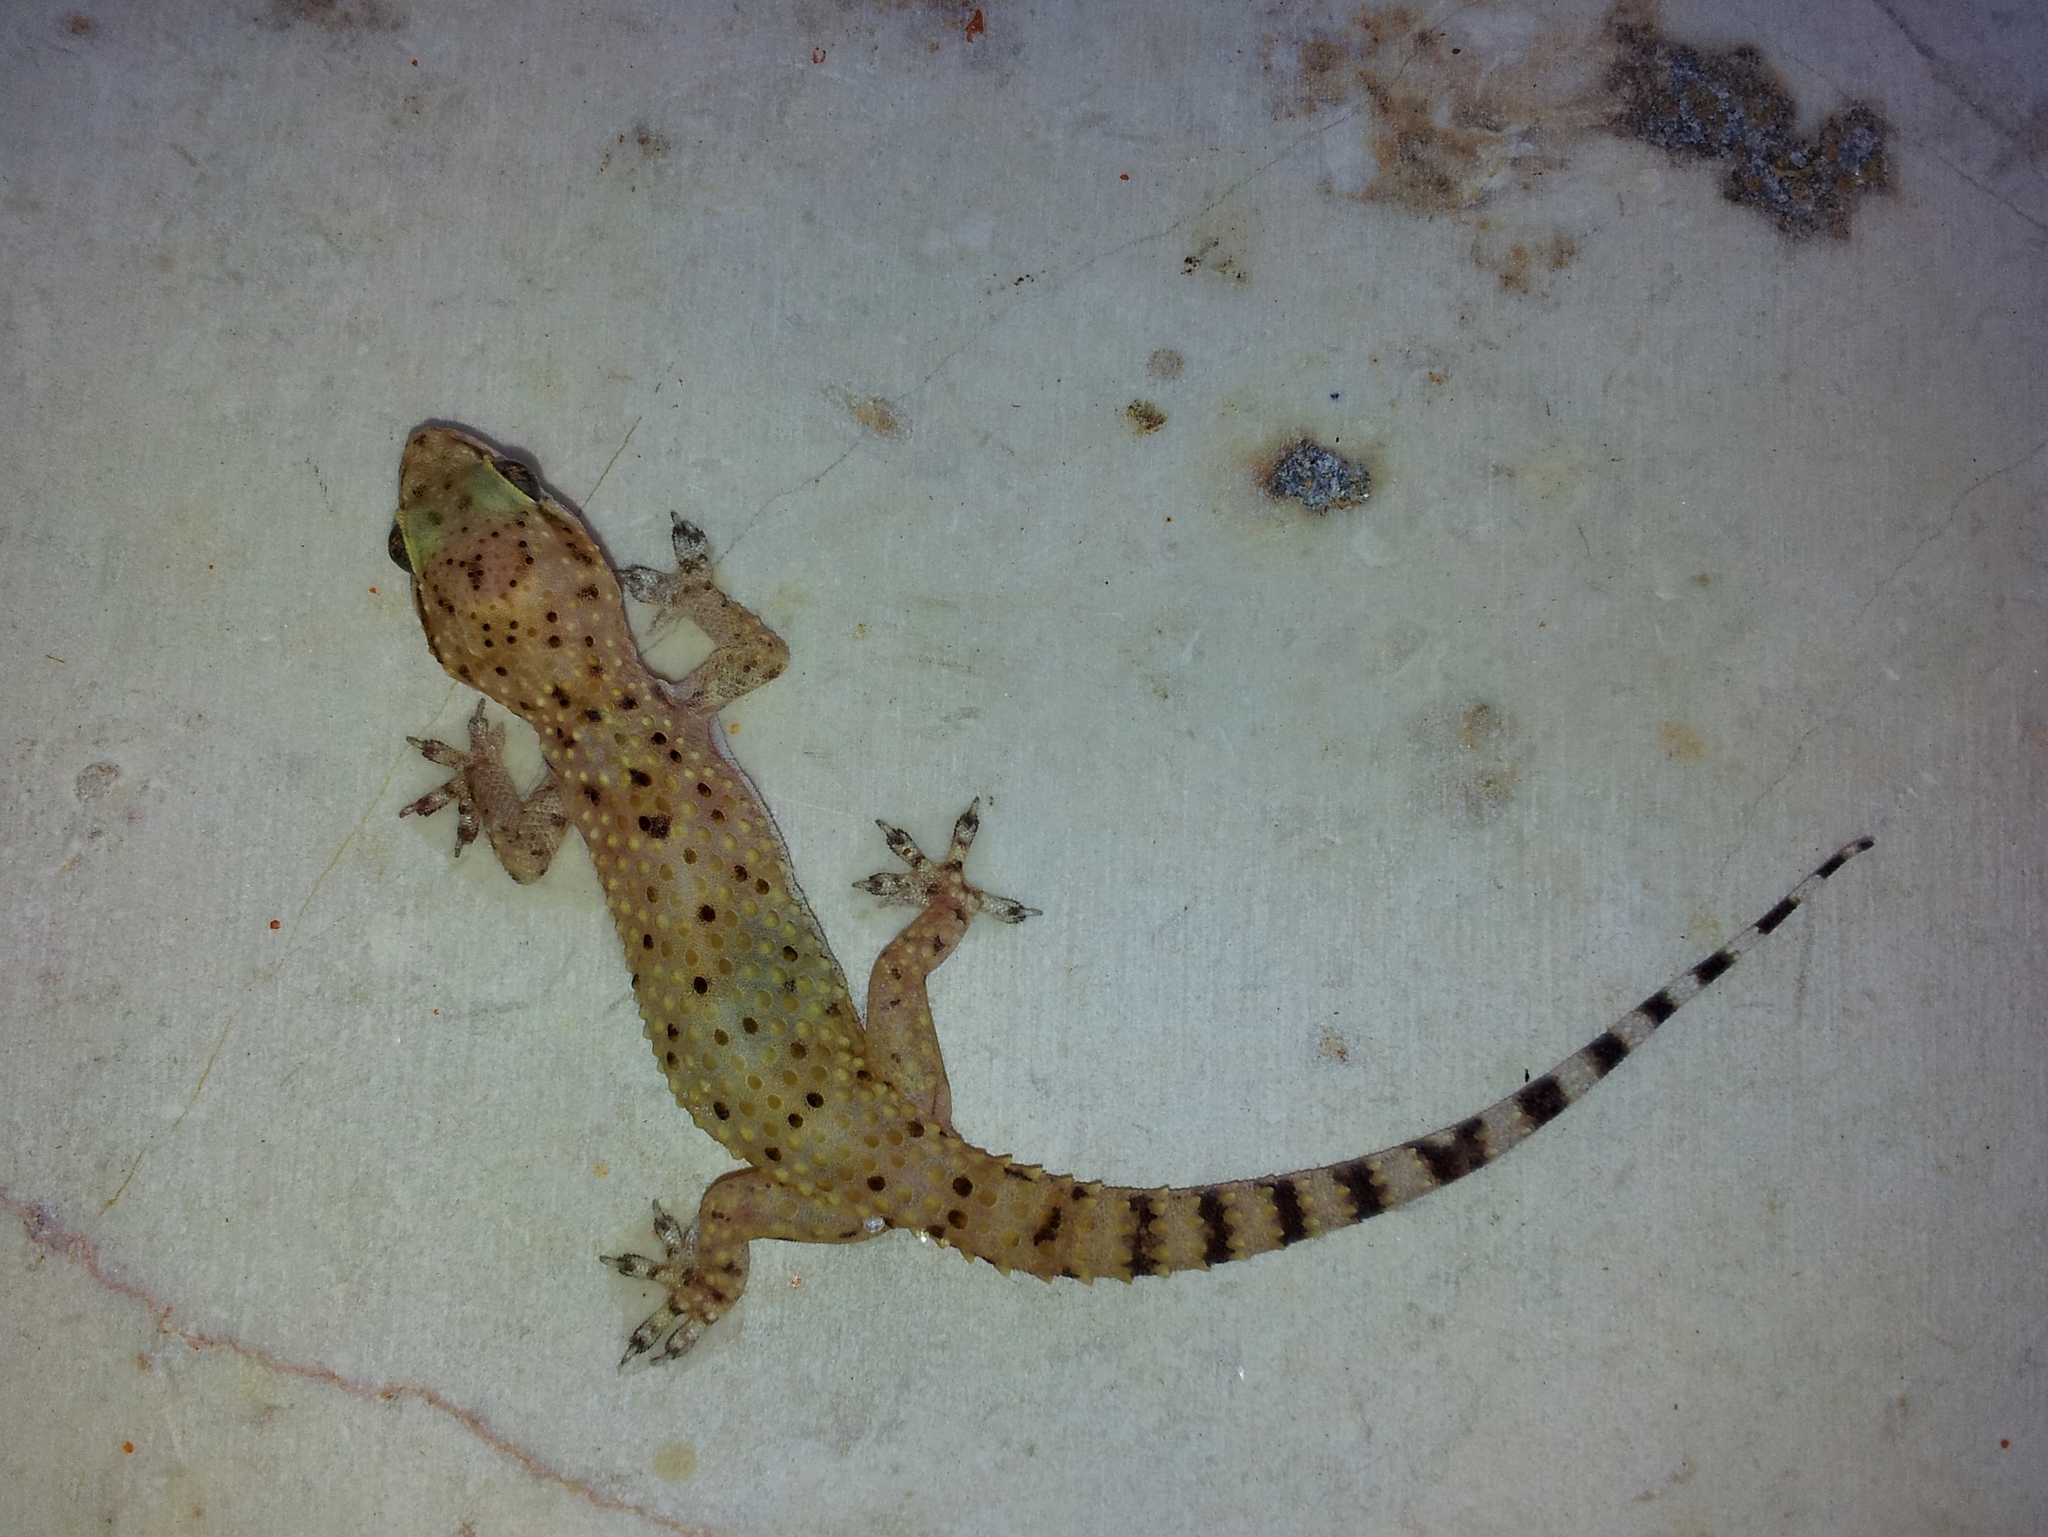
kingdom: Animalia
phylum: Chordata
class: Squamata
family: Gekkonidae
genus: Hemidactylus
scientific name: Hemidactylus turcicus
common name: Turkish gecko
